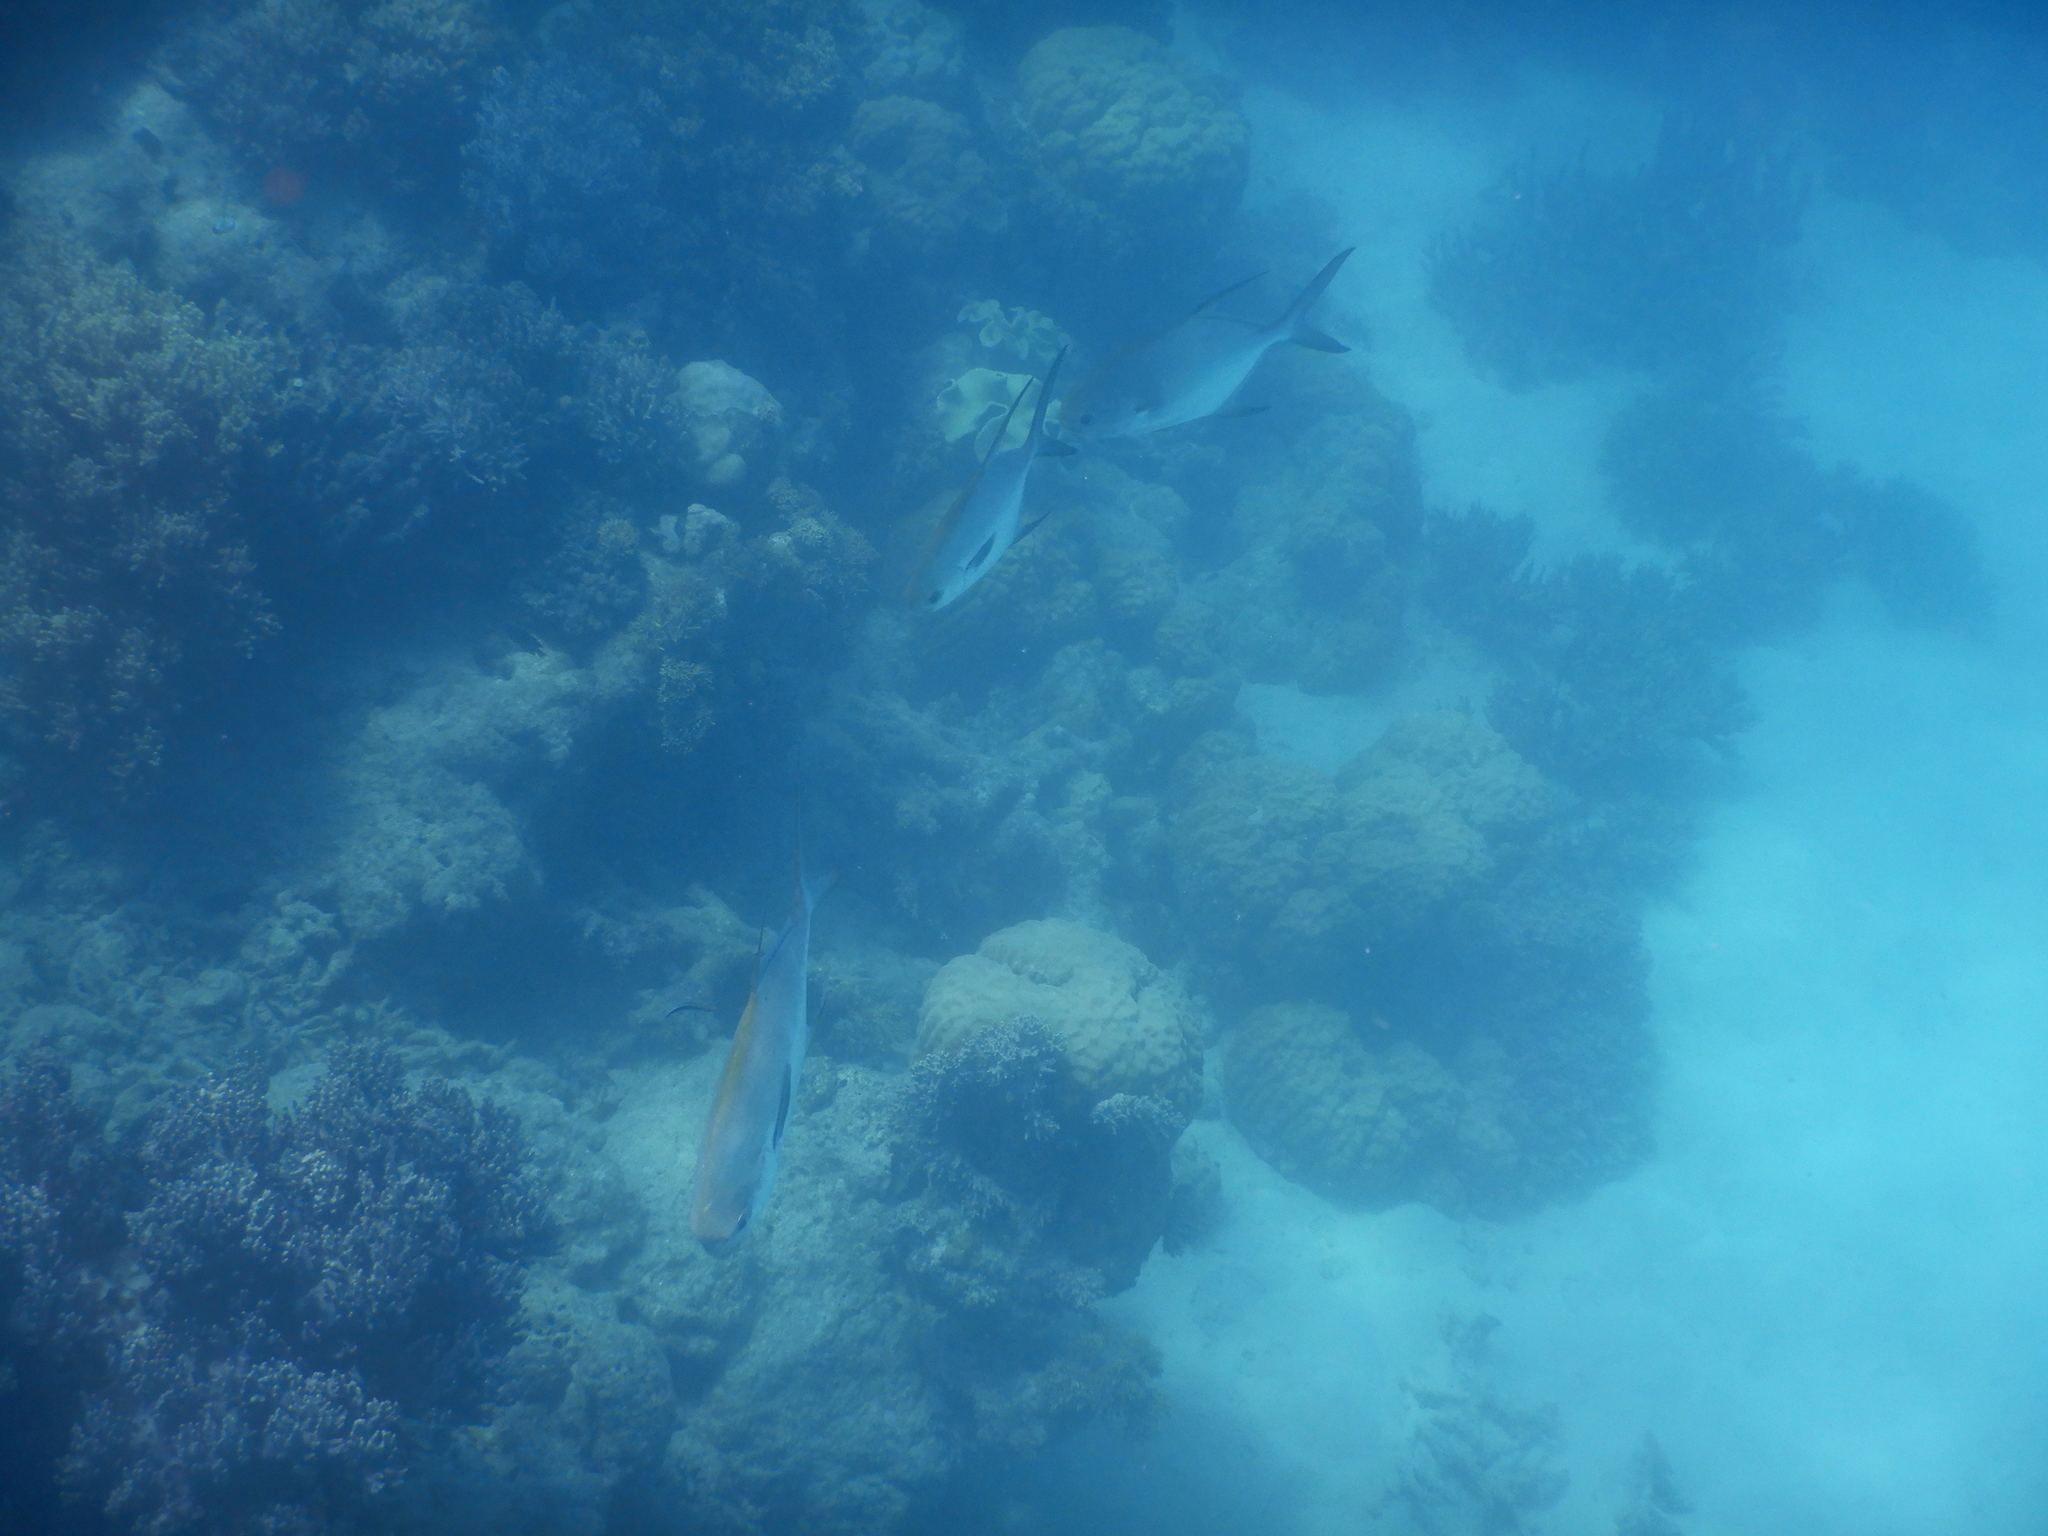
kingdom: Animalia
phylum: Chordata
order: Perciformes
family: Carangidae
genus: Trachinotus
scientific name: Trachinotus blochii
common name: Snubnose pompano
